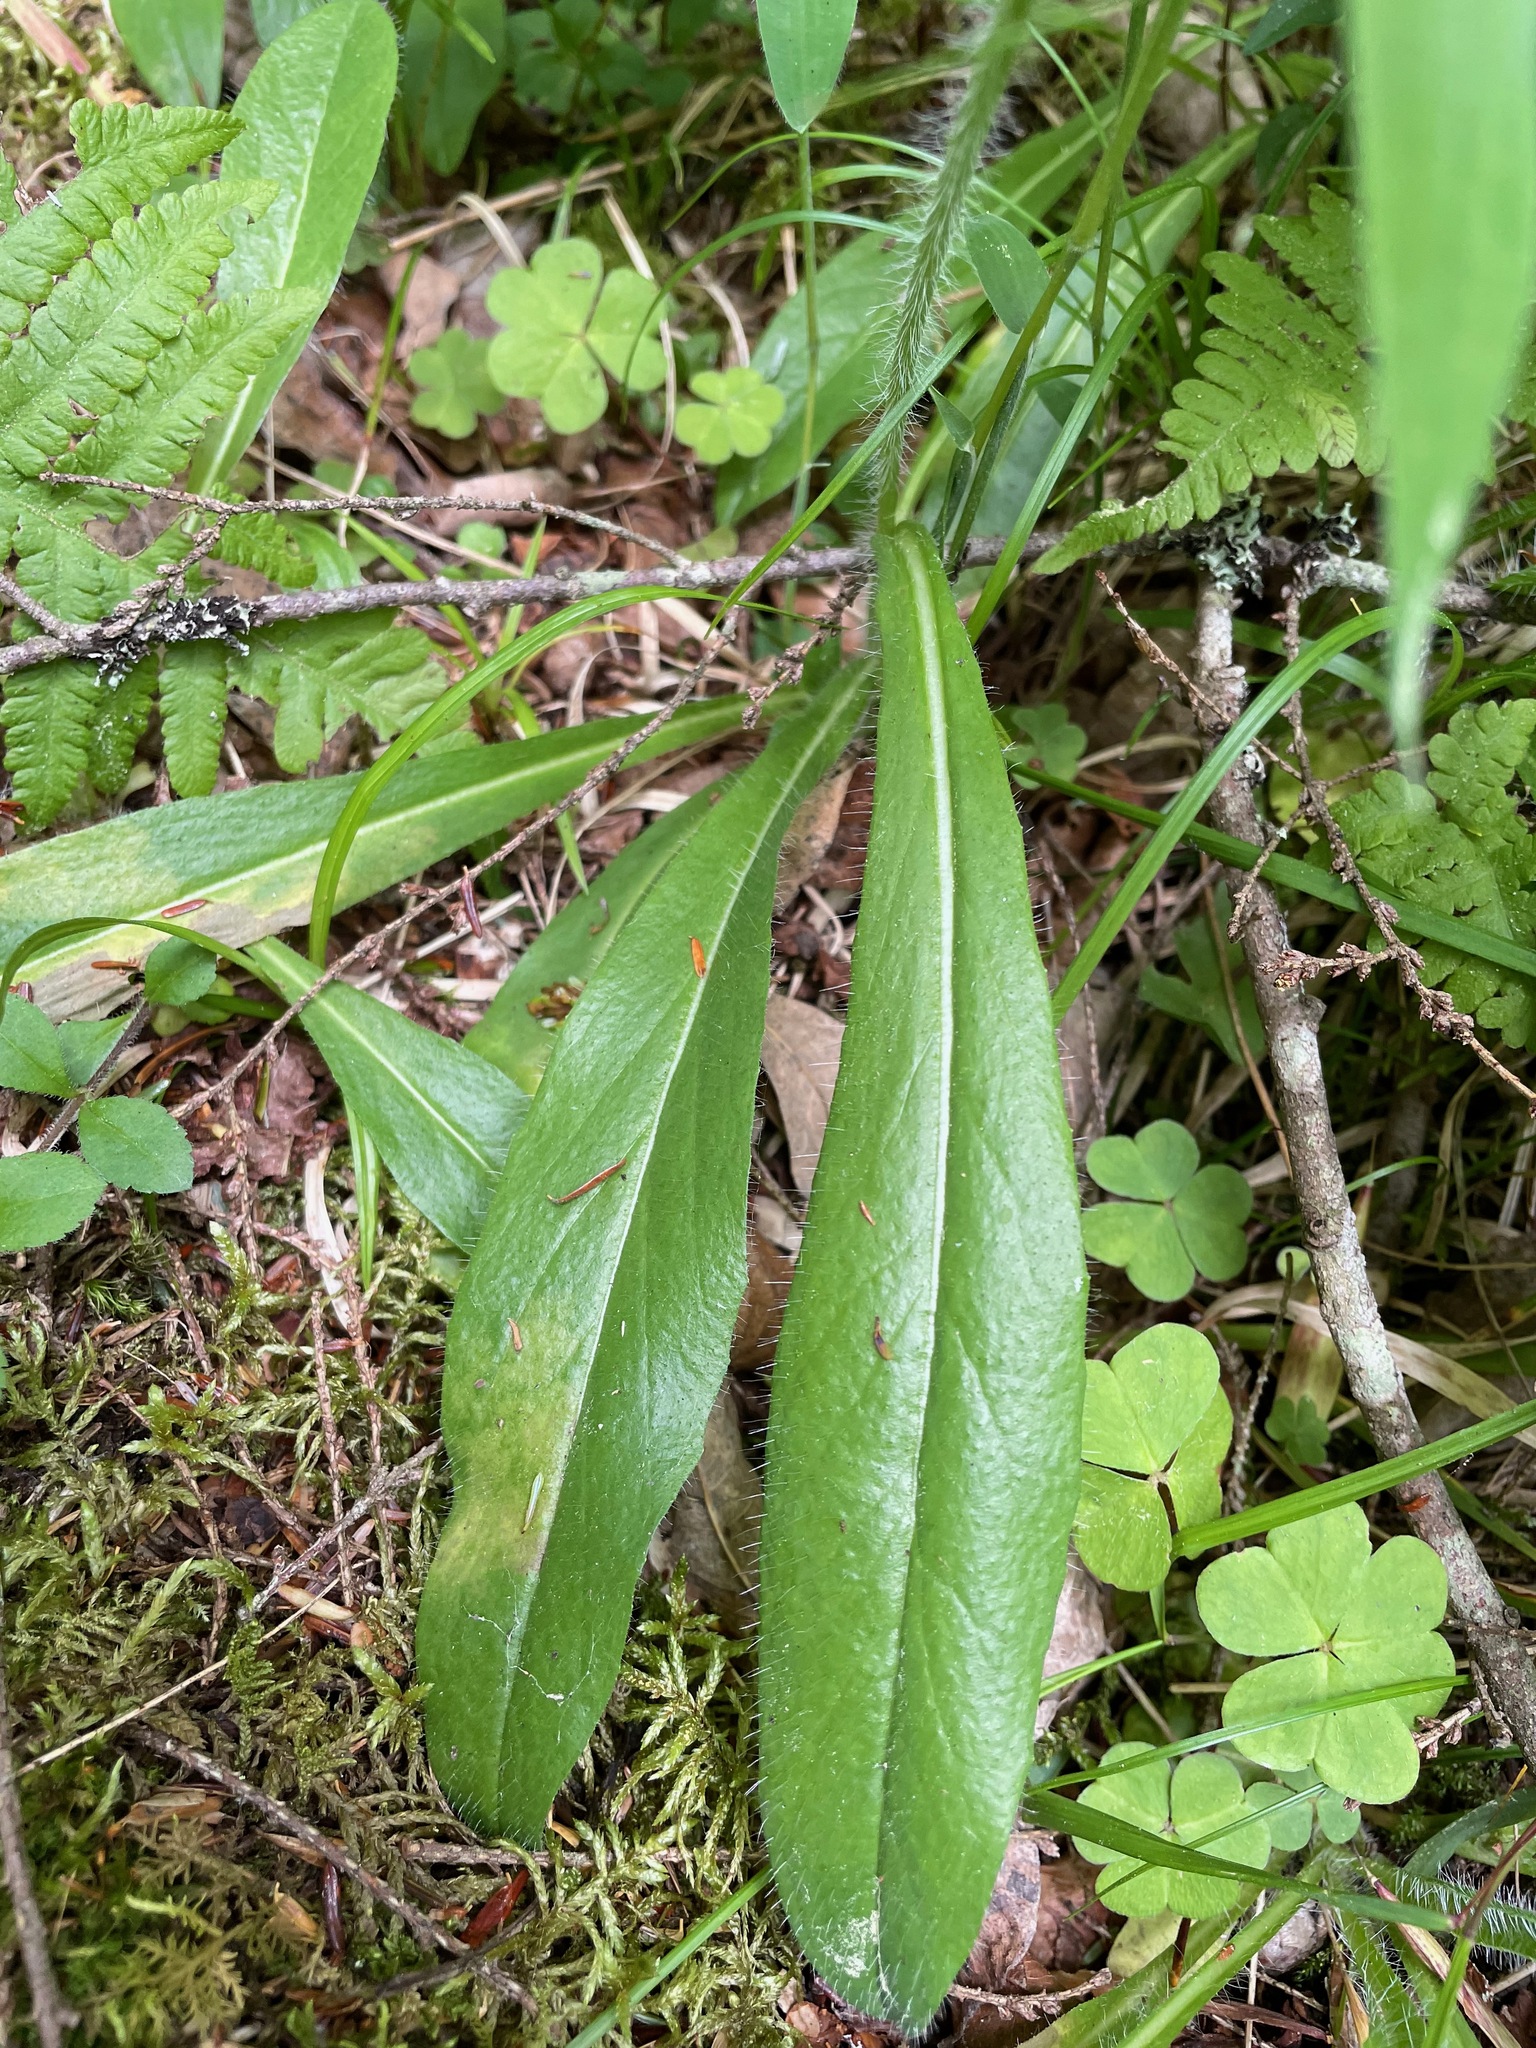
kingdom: Plantae
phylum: Tracheophyta
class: Magnoliopsida
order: Asterales
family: Asteraceae
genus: Pilosella
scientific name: Pilosella aurantiaca
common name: Fox-and-cubs
